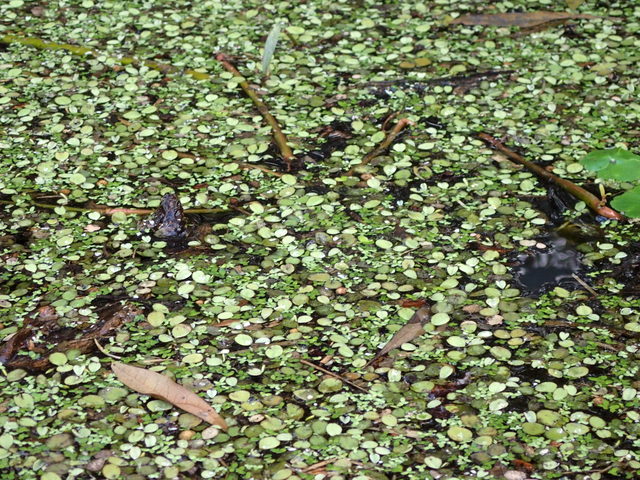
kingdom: Plantae
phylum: Tracheophyta
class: Polypodiopsida
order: Salviniales
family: Salviniaceae
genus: Salvinia
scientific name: Salvinia minima
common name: Water spangles
